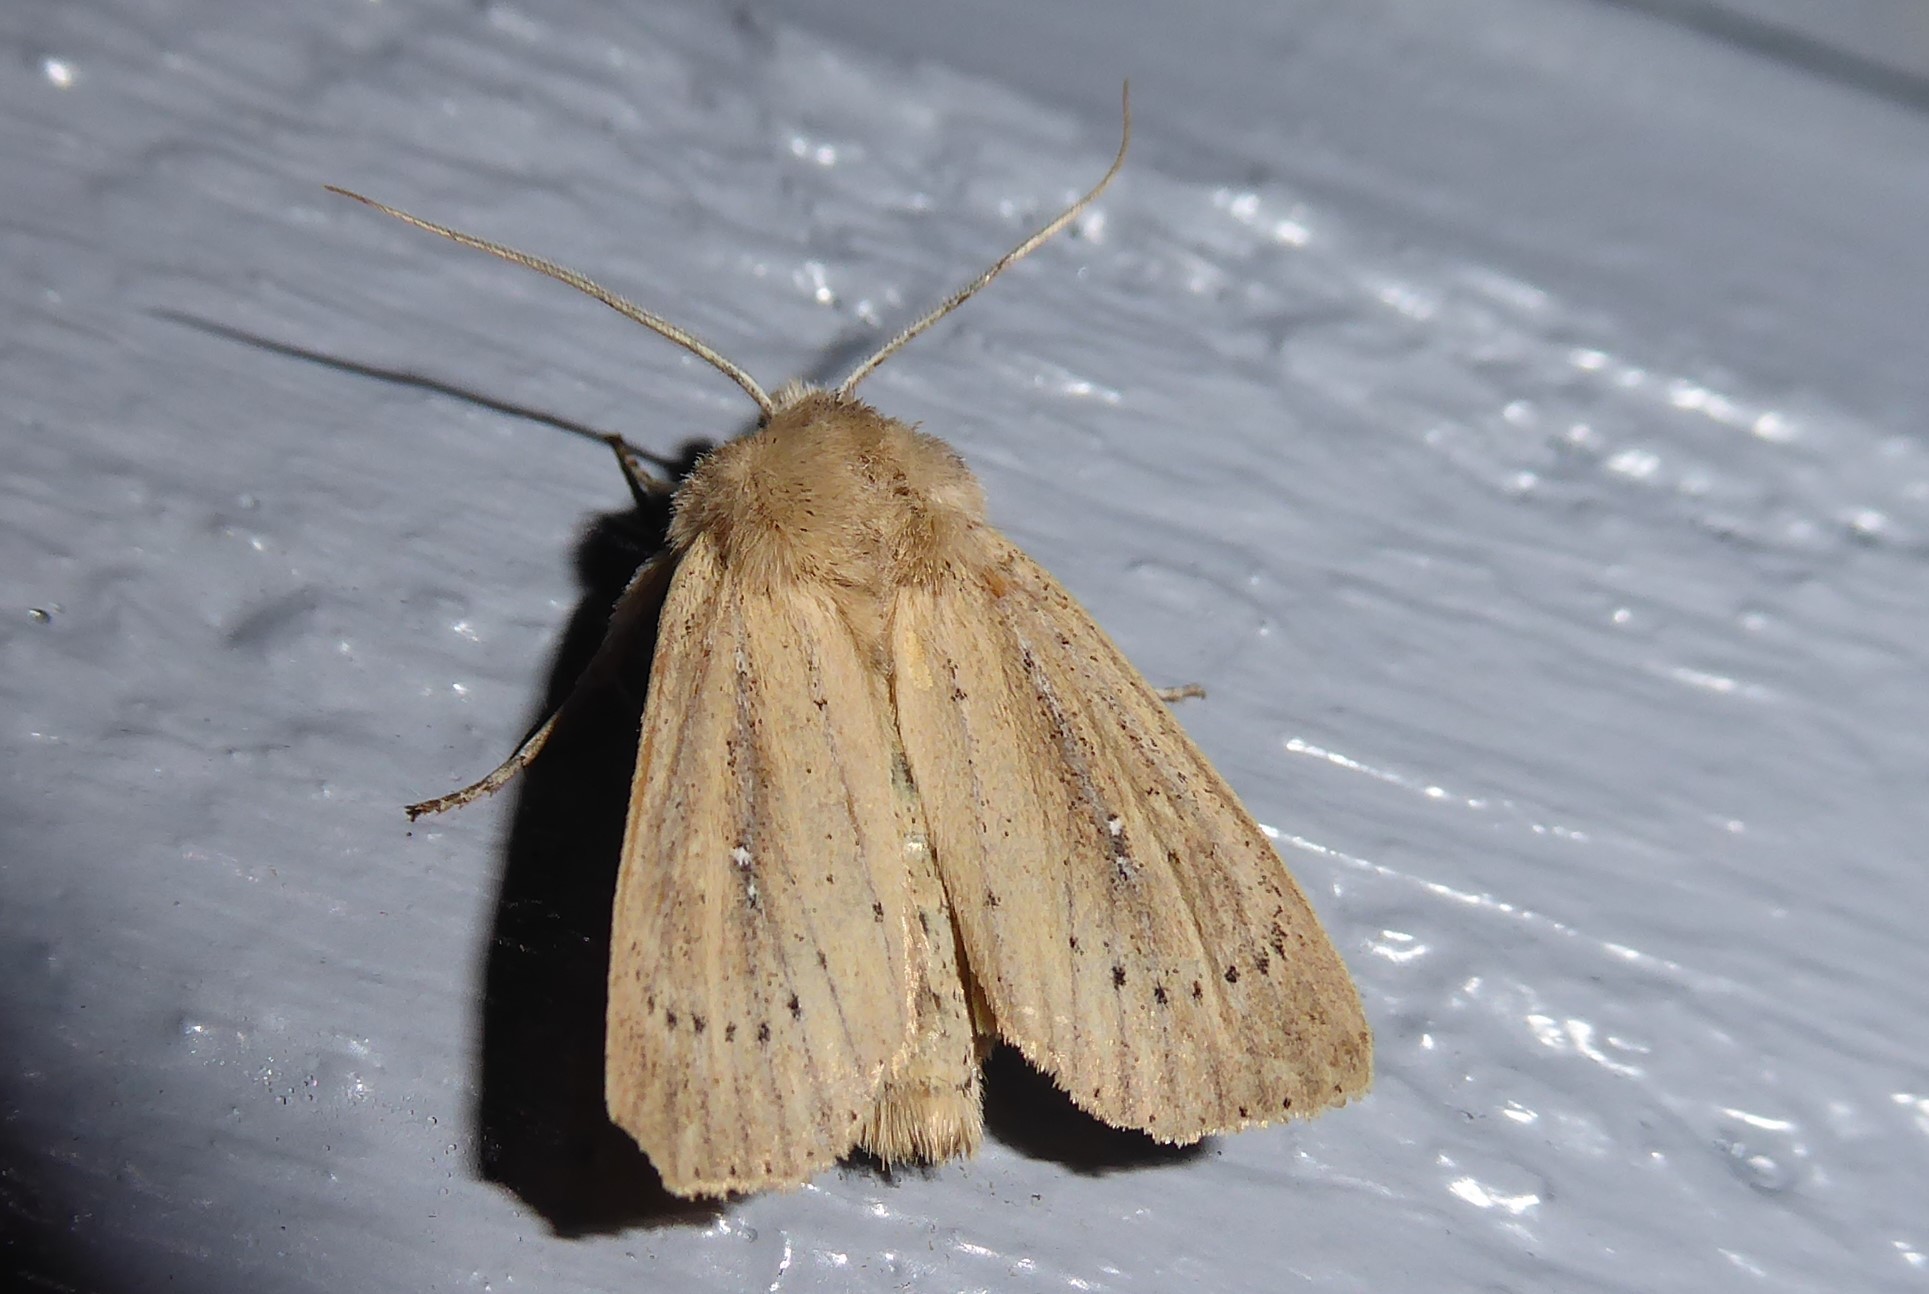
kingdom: Animalia
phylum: Arthropoda
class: Insecta
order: Lepidoptera
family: Noctuidae
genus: Ichneutica
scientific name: Ichneutica
